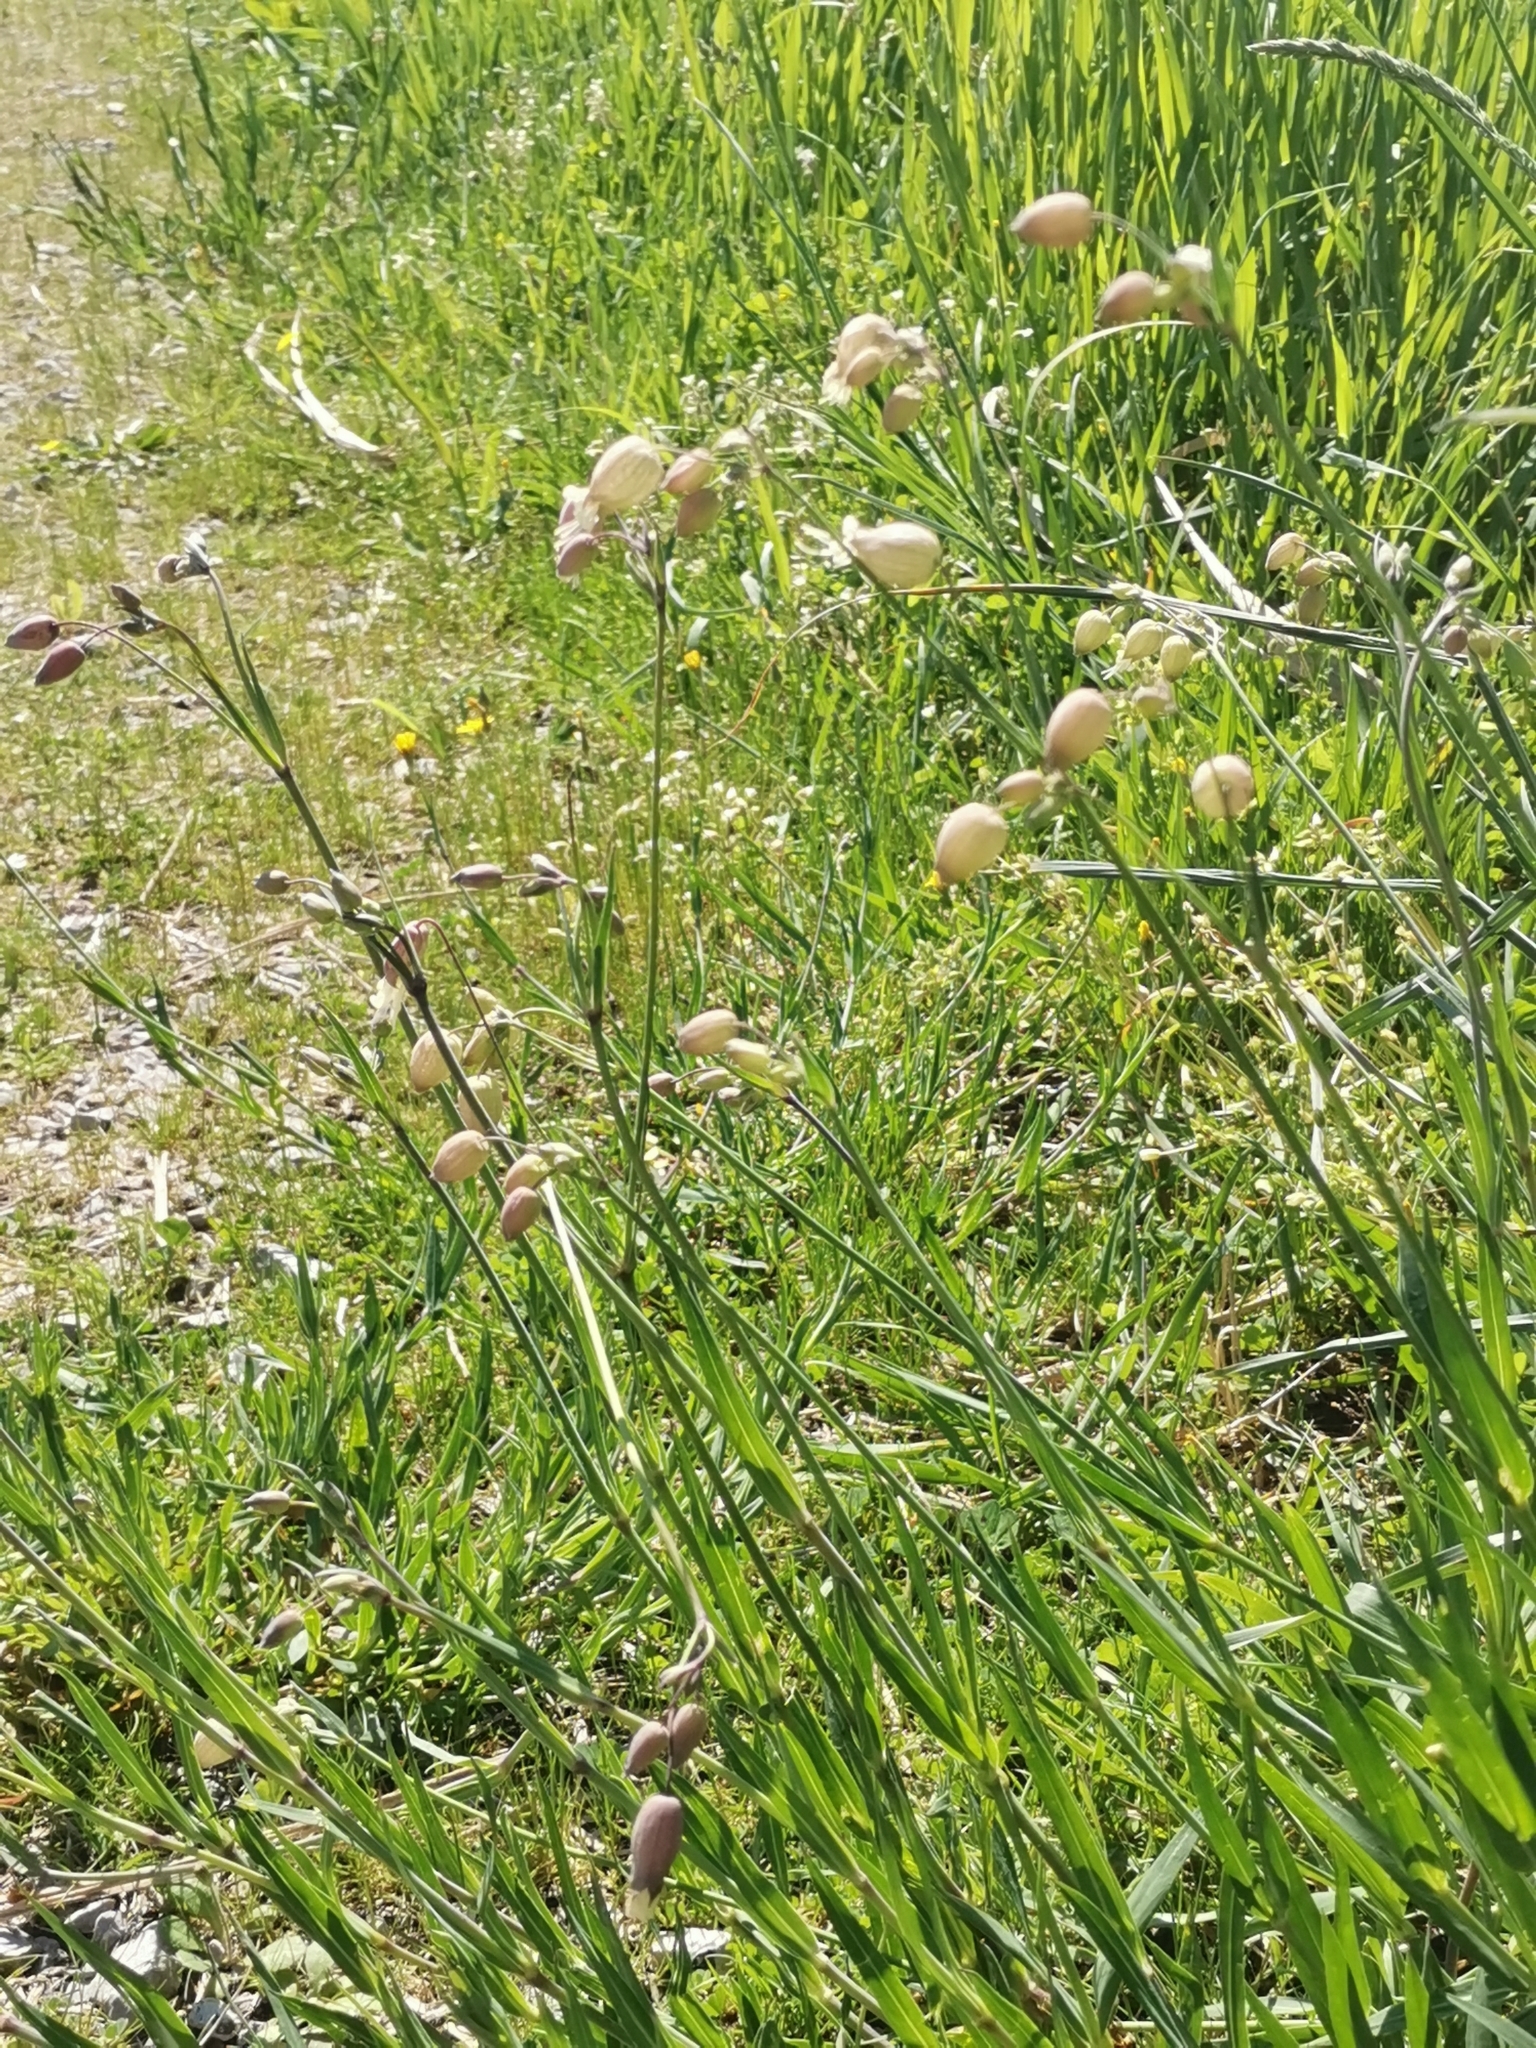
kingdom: Plantae
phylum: Tracheophyta
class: Magnoliopsida
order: Caryophyllales
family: Caryophyllaceae
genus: Silene
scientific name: Silene vulgaris
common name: Bladder campion
